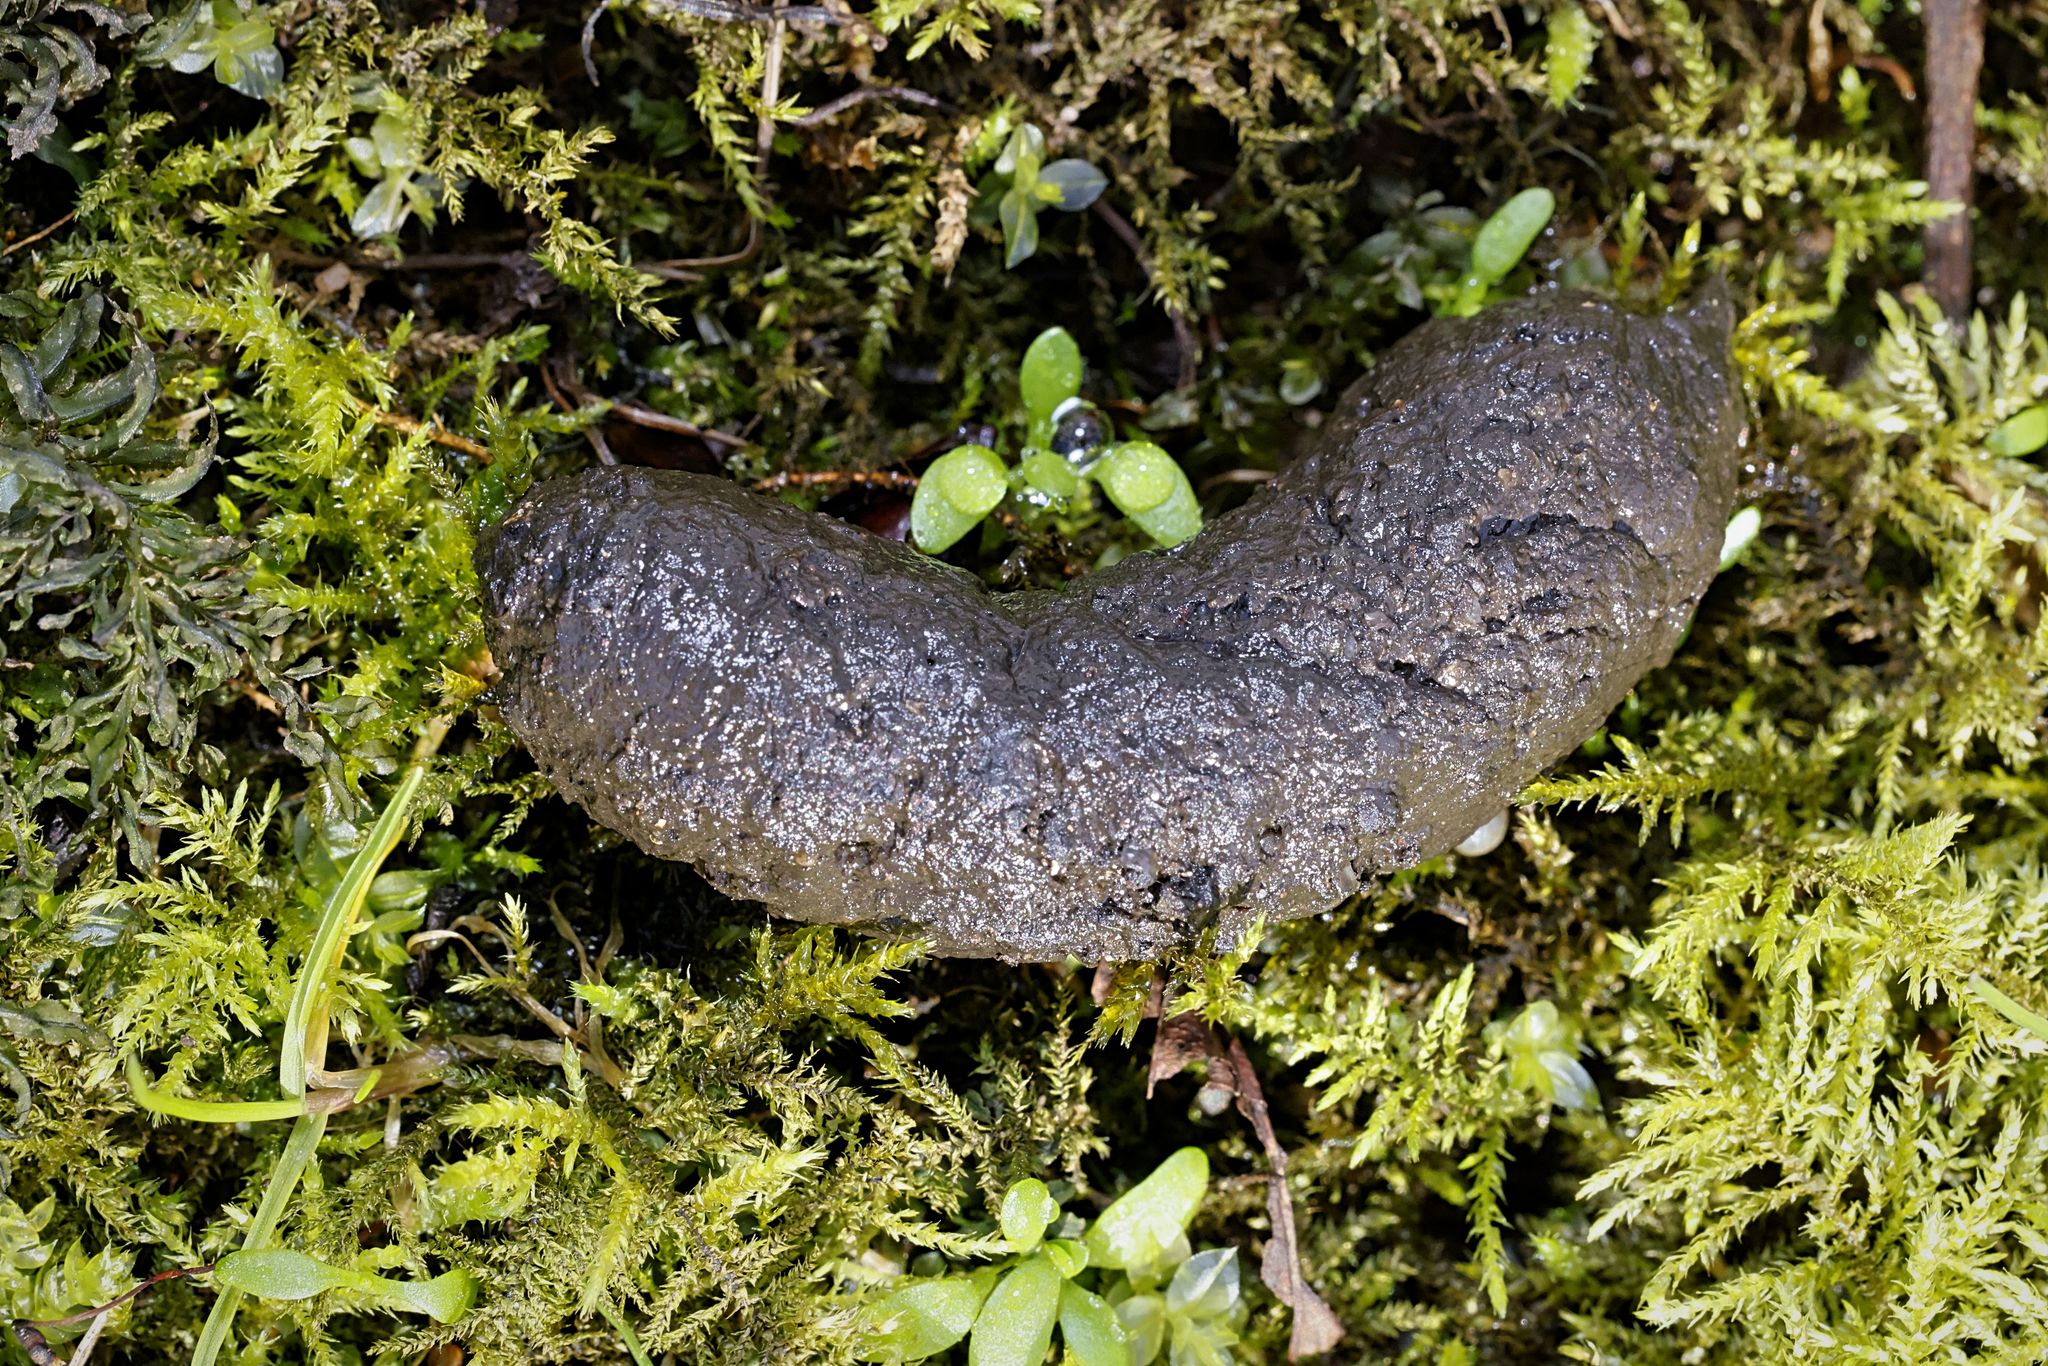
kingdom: Animalia
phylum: Chordata
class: Mammalia
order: Erinaceomorpha
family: Erinaceidae
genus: Erinaceus
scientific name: Erinaceus europaeus
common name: West european hedgehog
